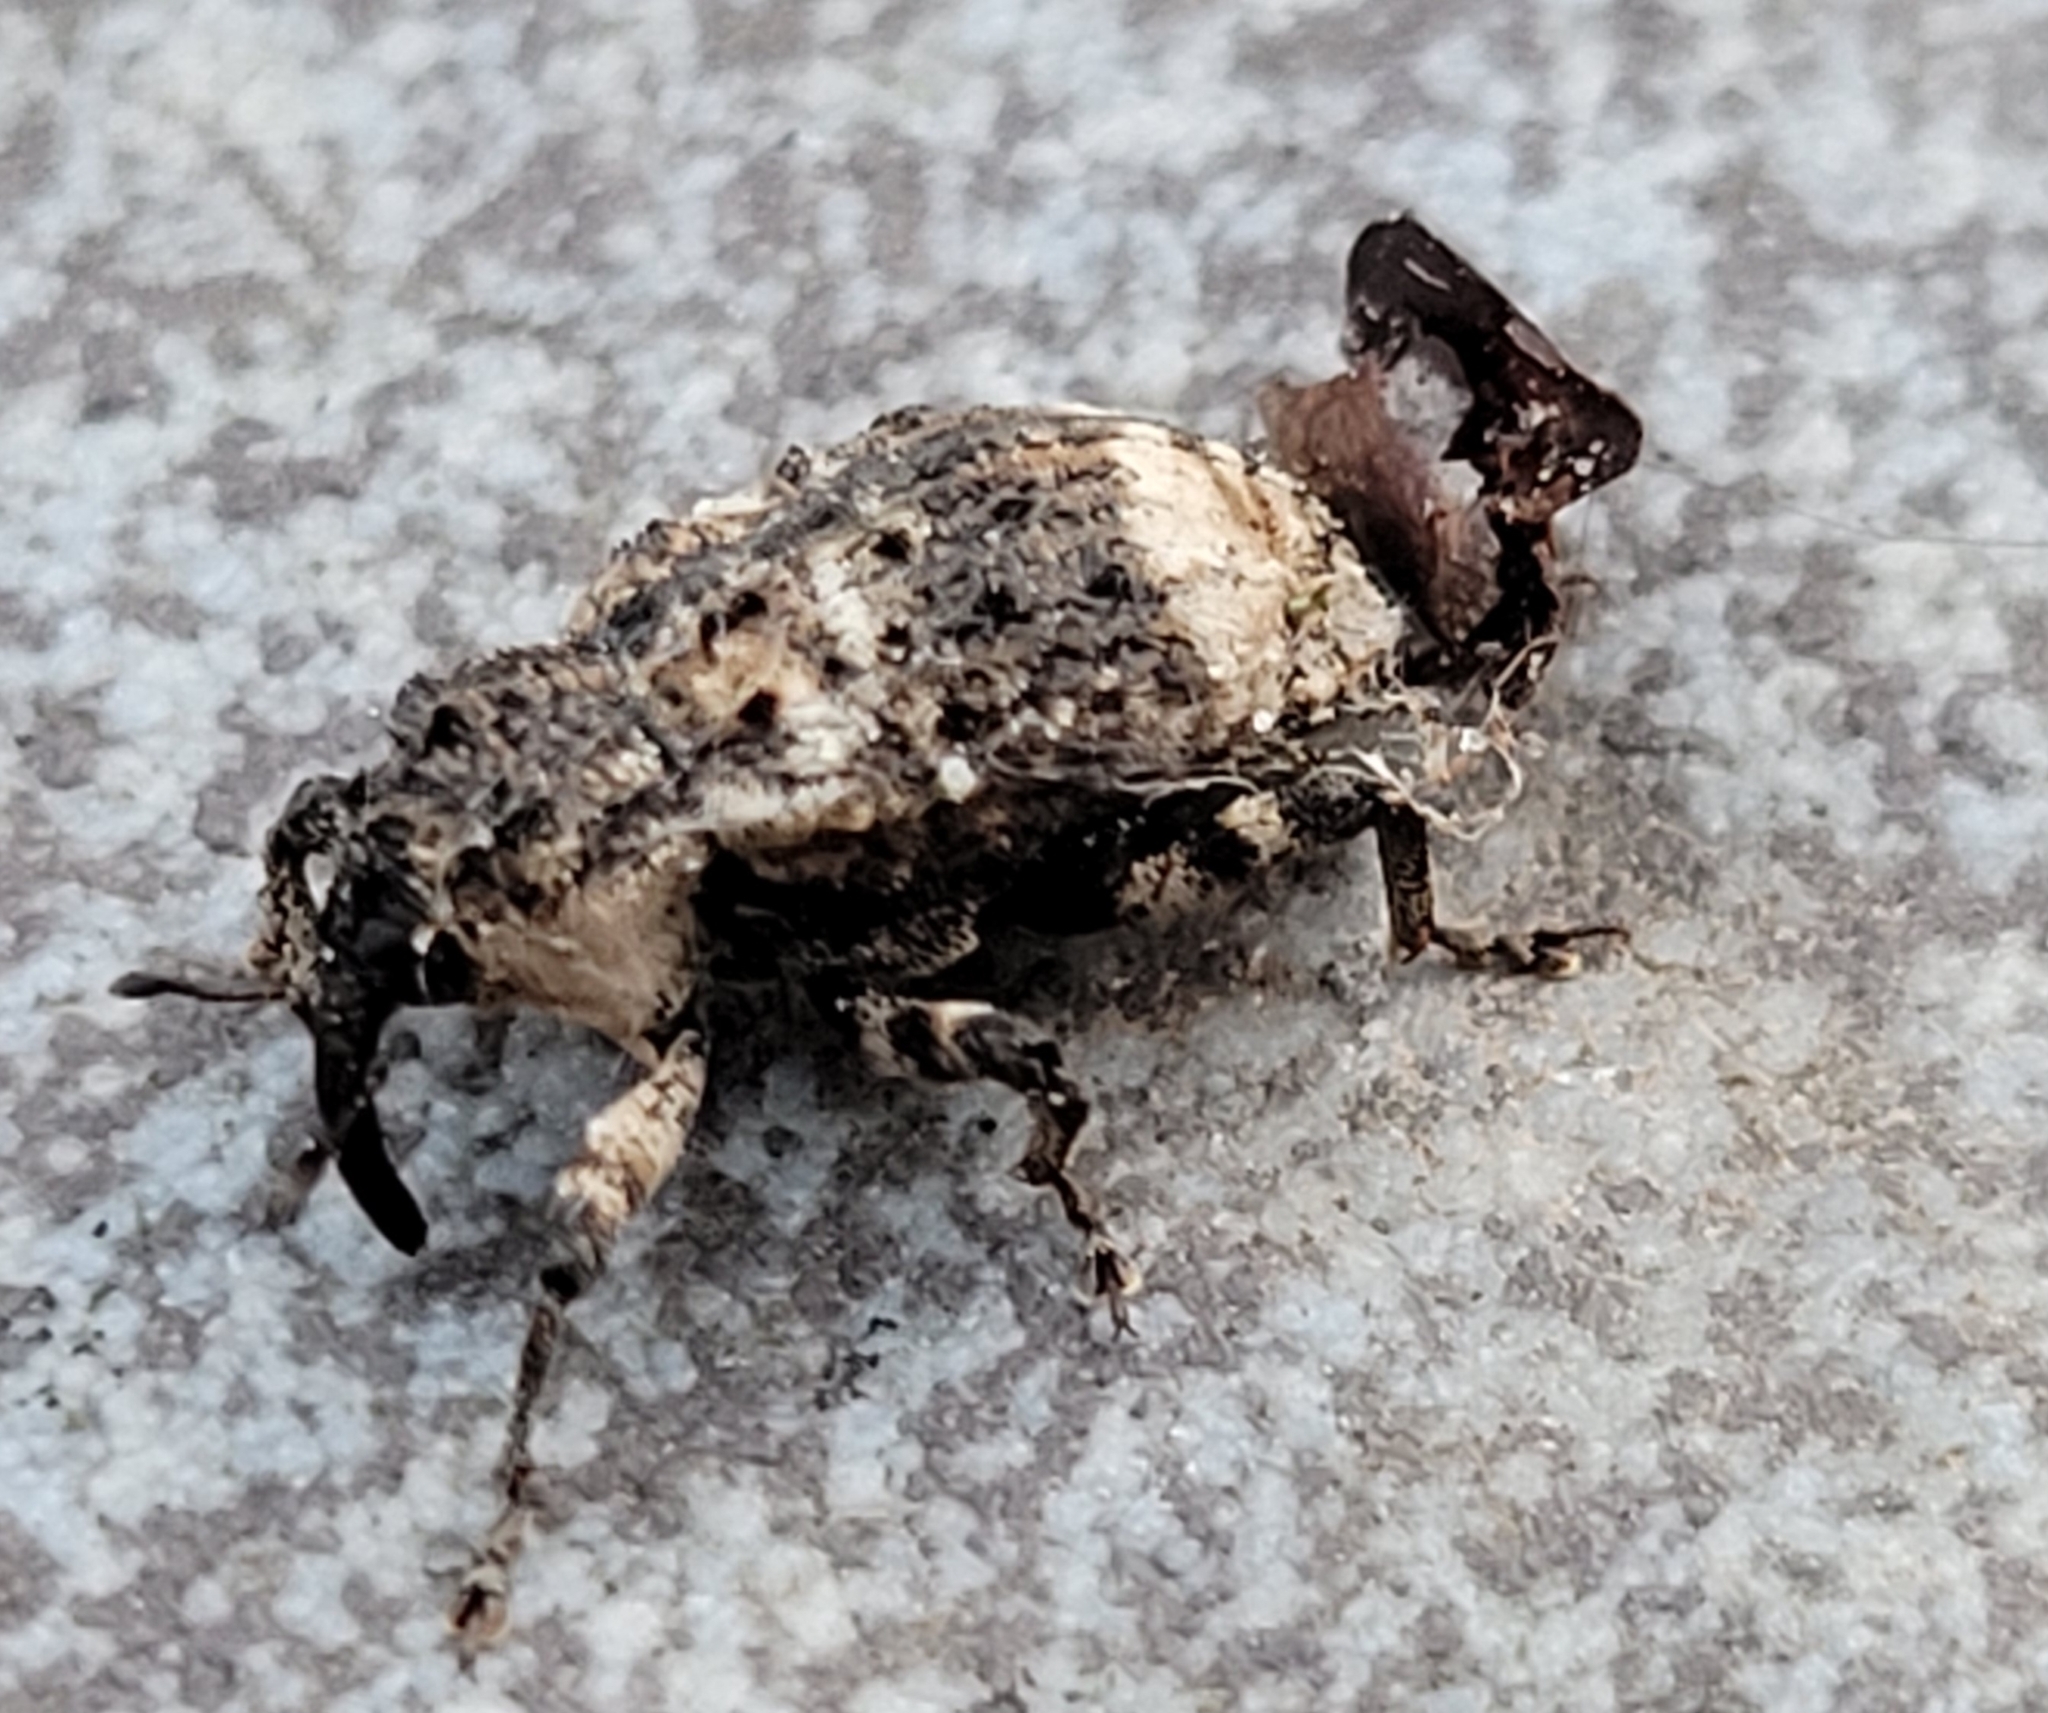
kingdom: Animalia
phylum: Arthropoda
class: Insecta
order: Coleoptera
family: Curculionidae
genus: Cryptorhynchus
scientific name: Cryptorhynchus lapathi
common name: Weevil
